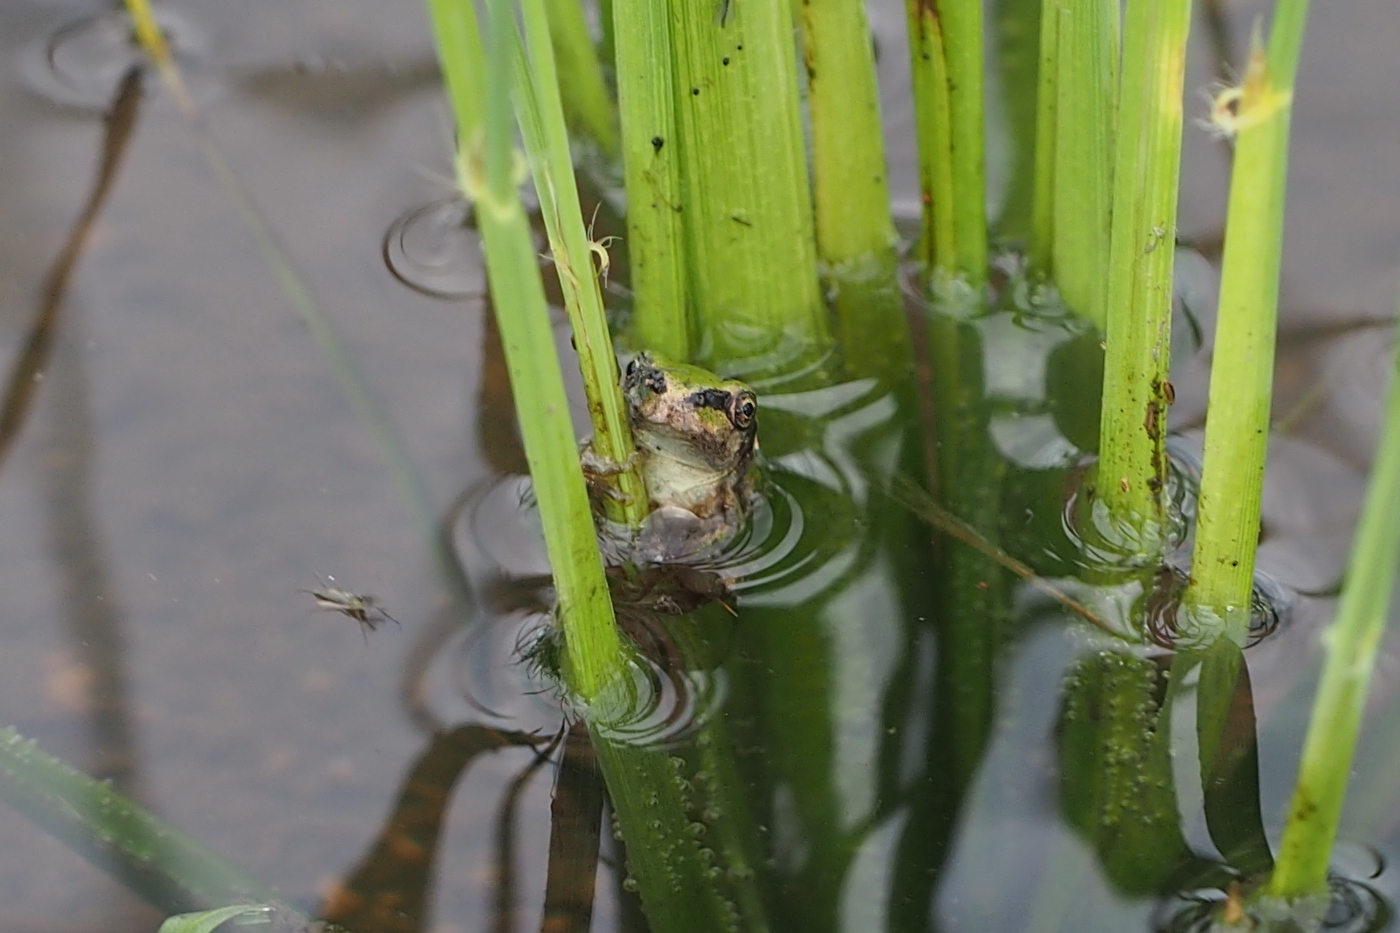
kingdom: Animalia
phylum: Chordata
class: Amphibia
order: Anura
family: Hylidae
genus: Dryophytes
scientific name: Dryophytes japonicus
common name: Japanese treefrog
